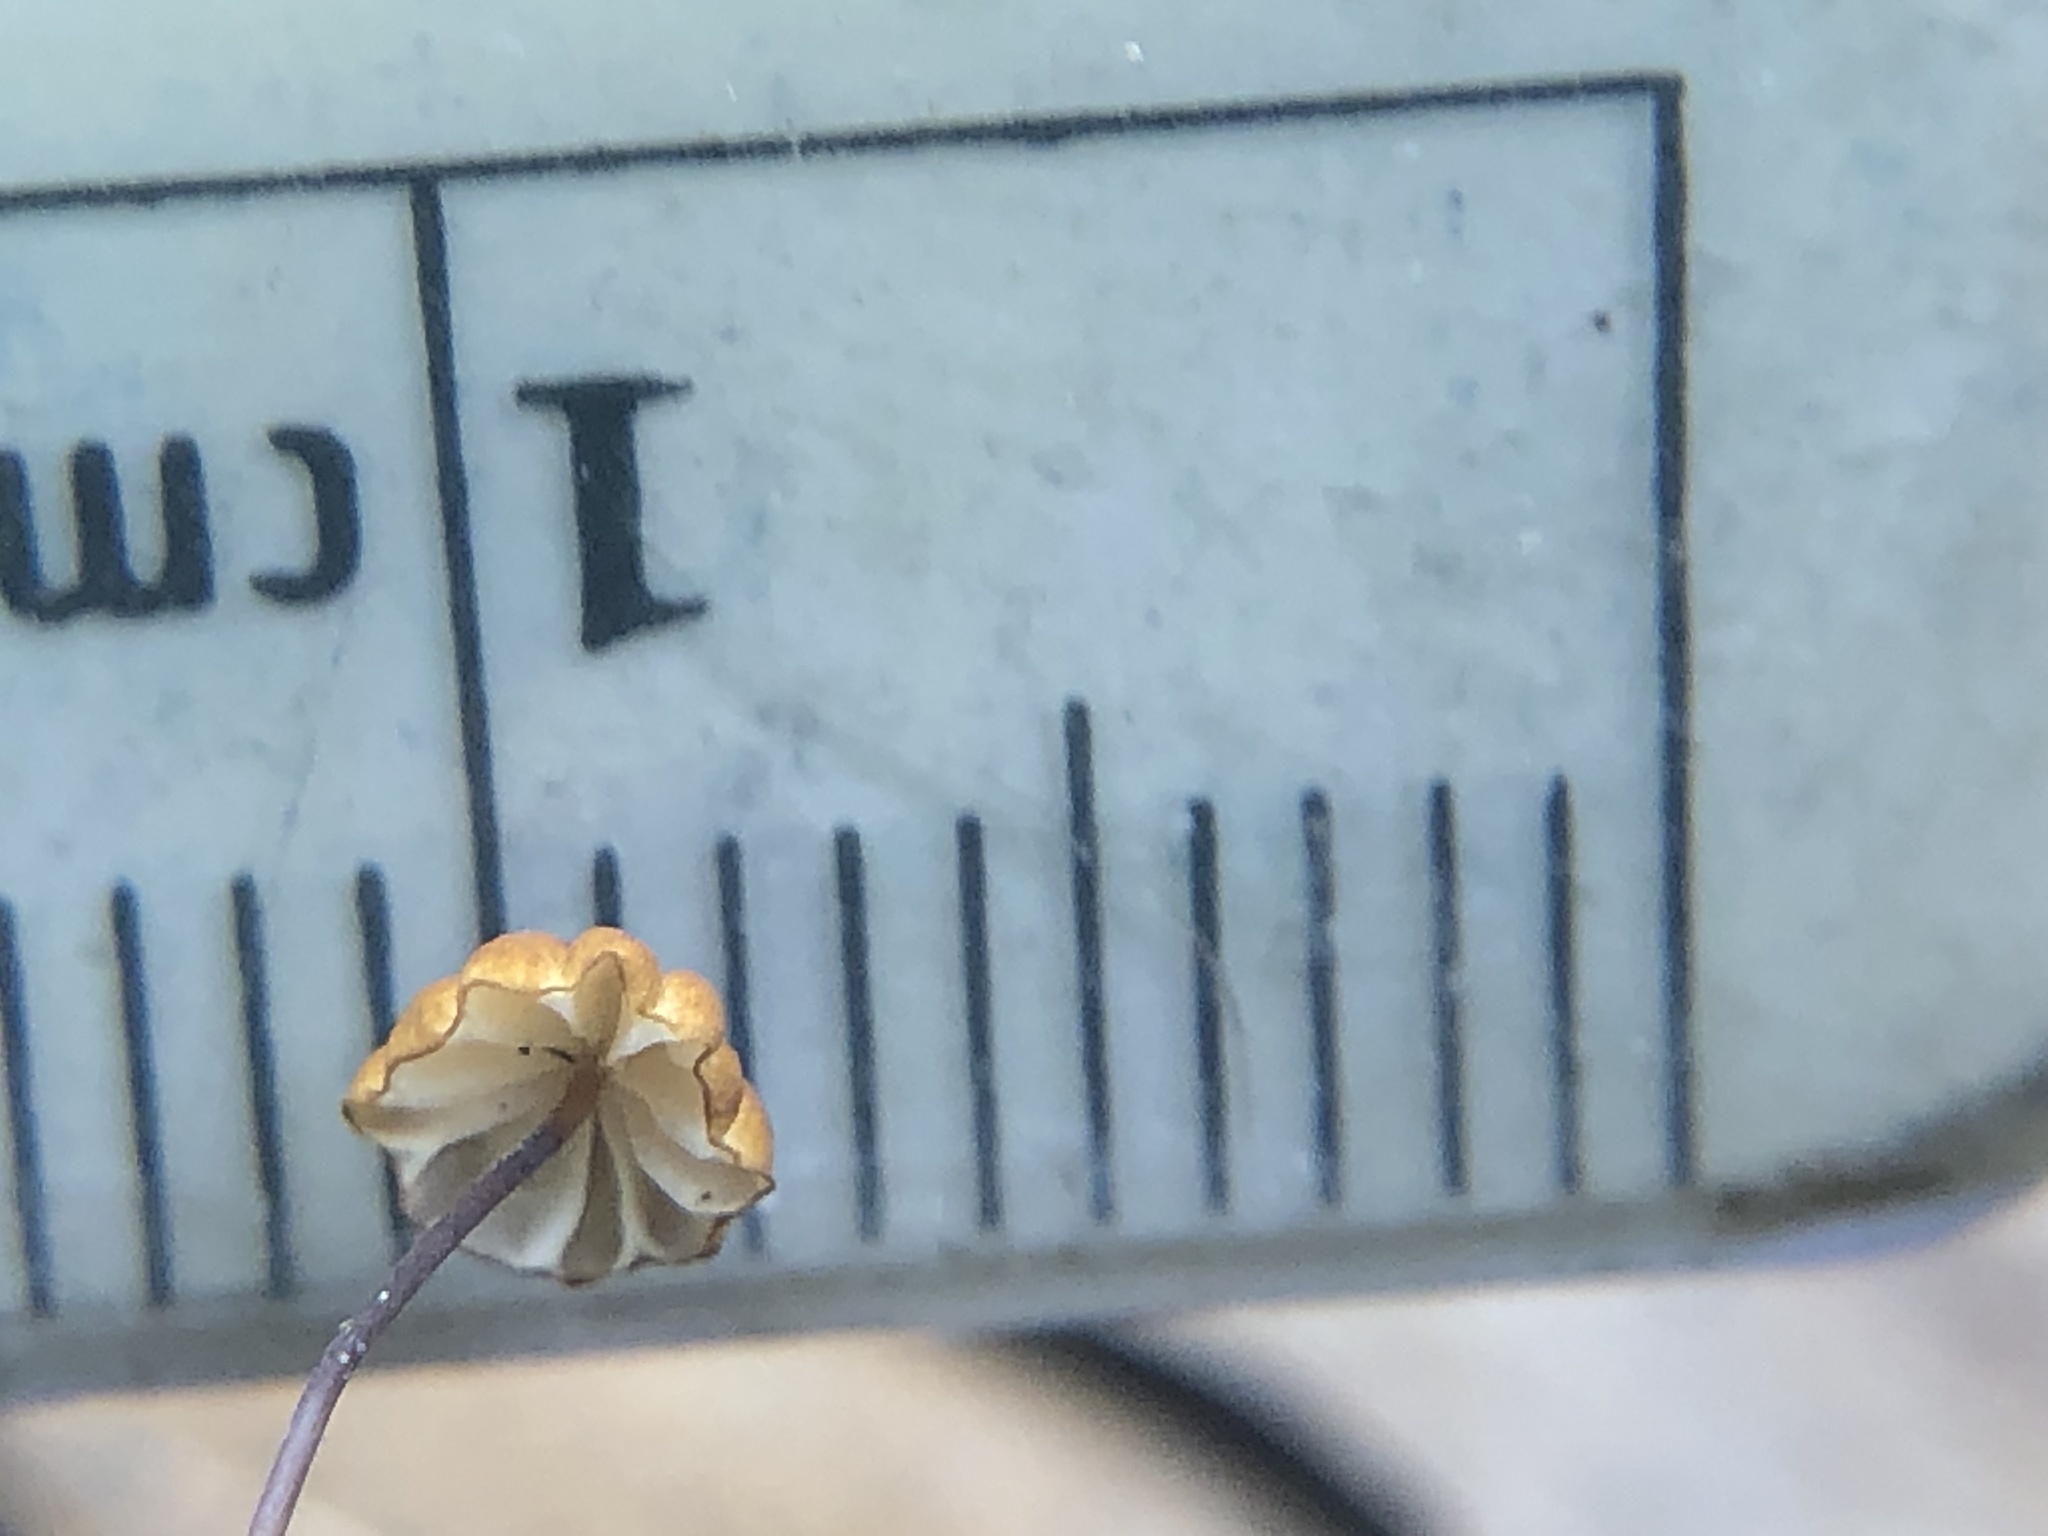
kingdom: Fungi
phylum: Basidiomycota
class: Agaricomycetes
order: Agaricales
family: Physalacriaceae
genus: Cryptomarasmius
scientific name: Cryptomarasmius corbariensis
